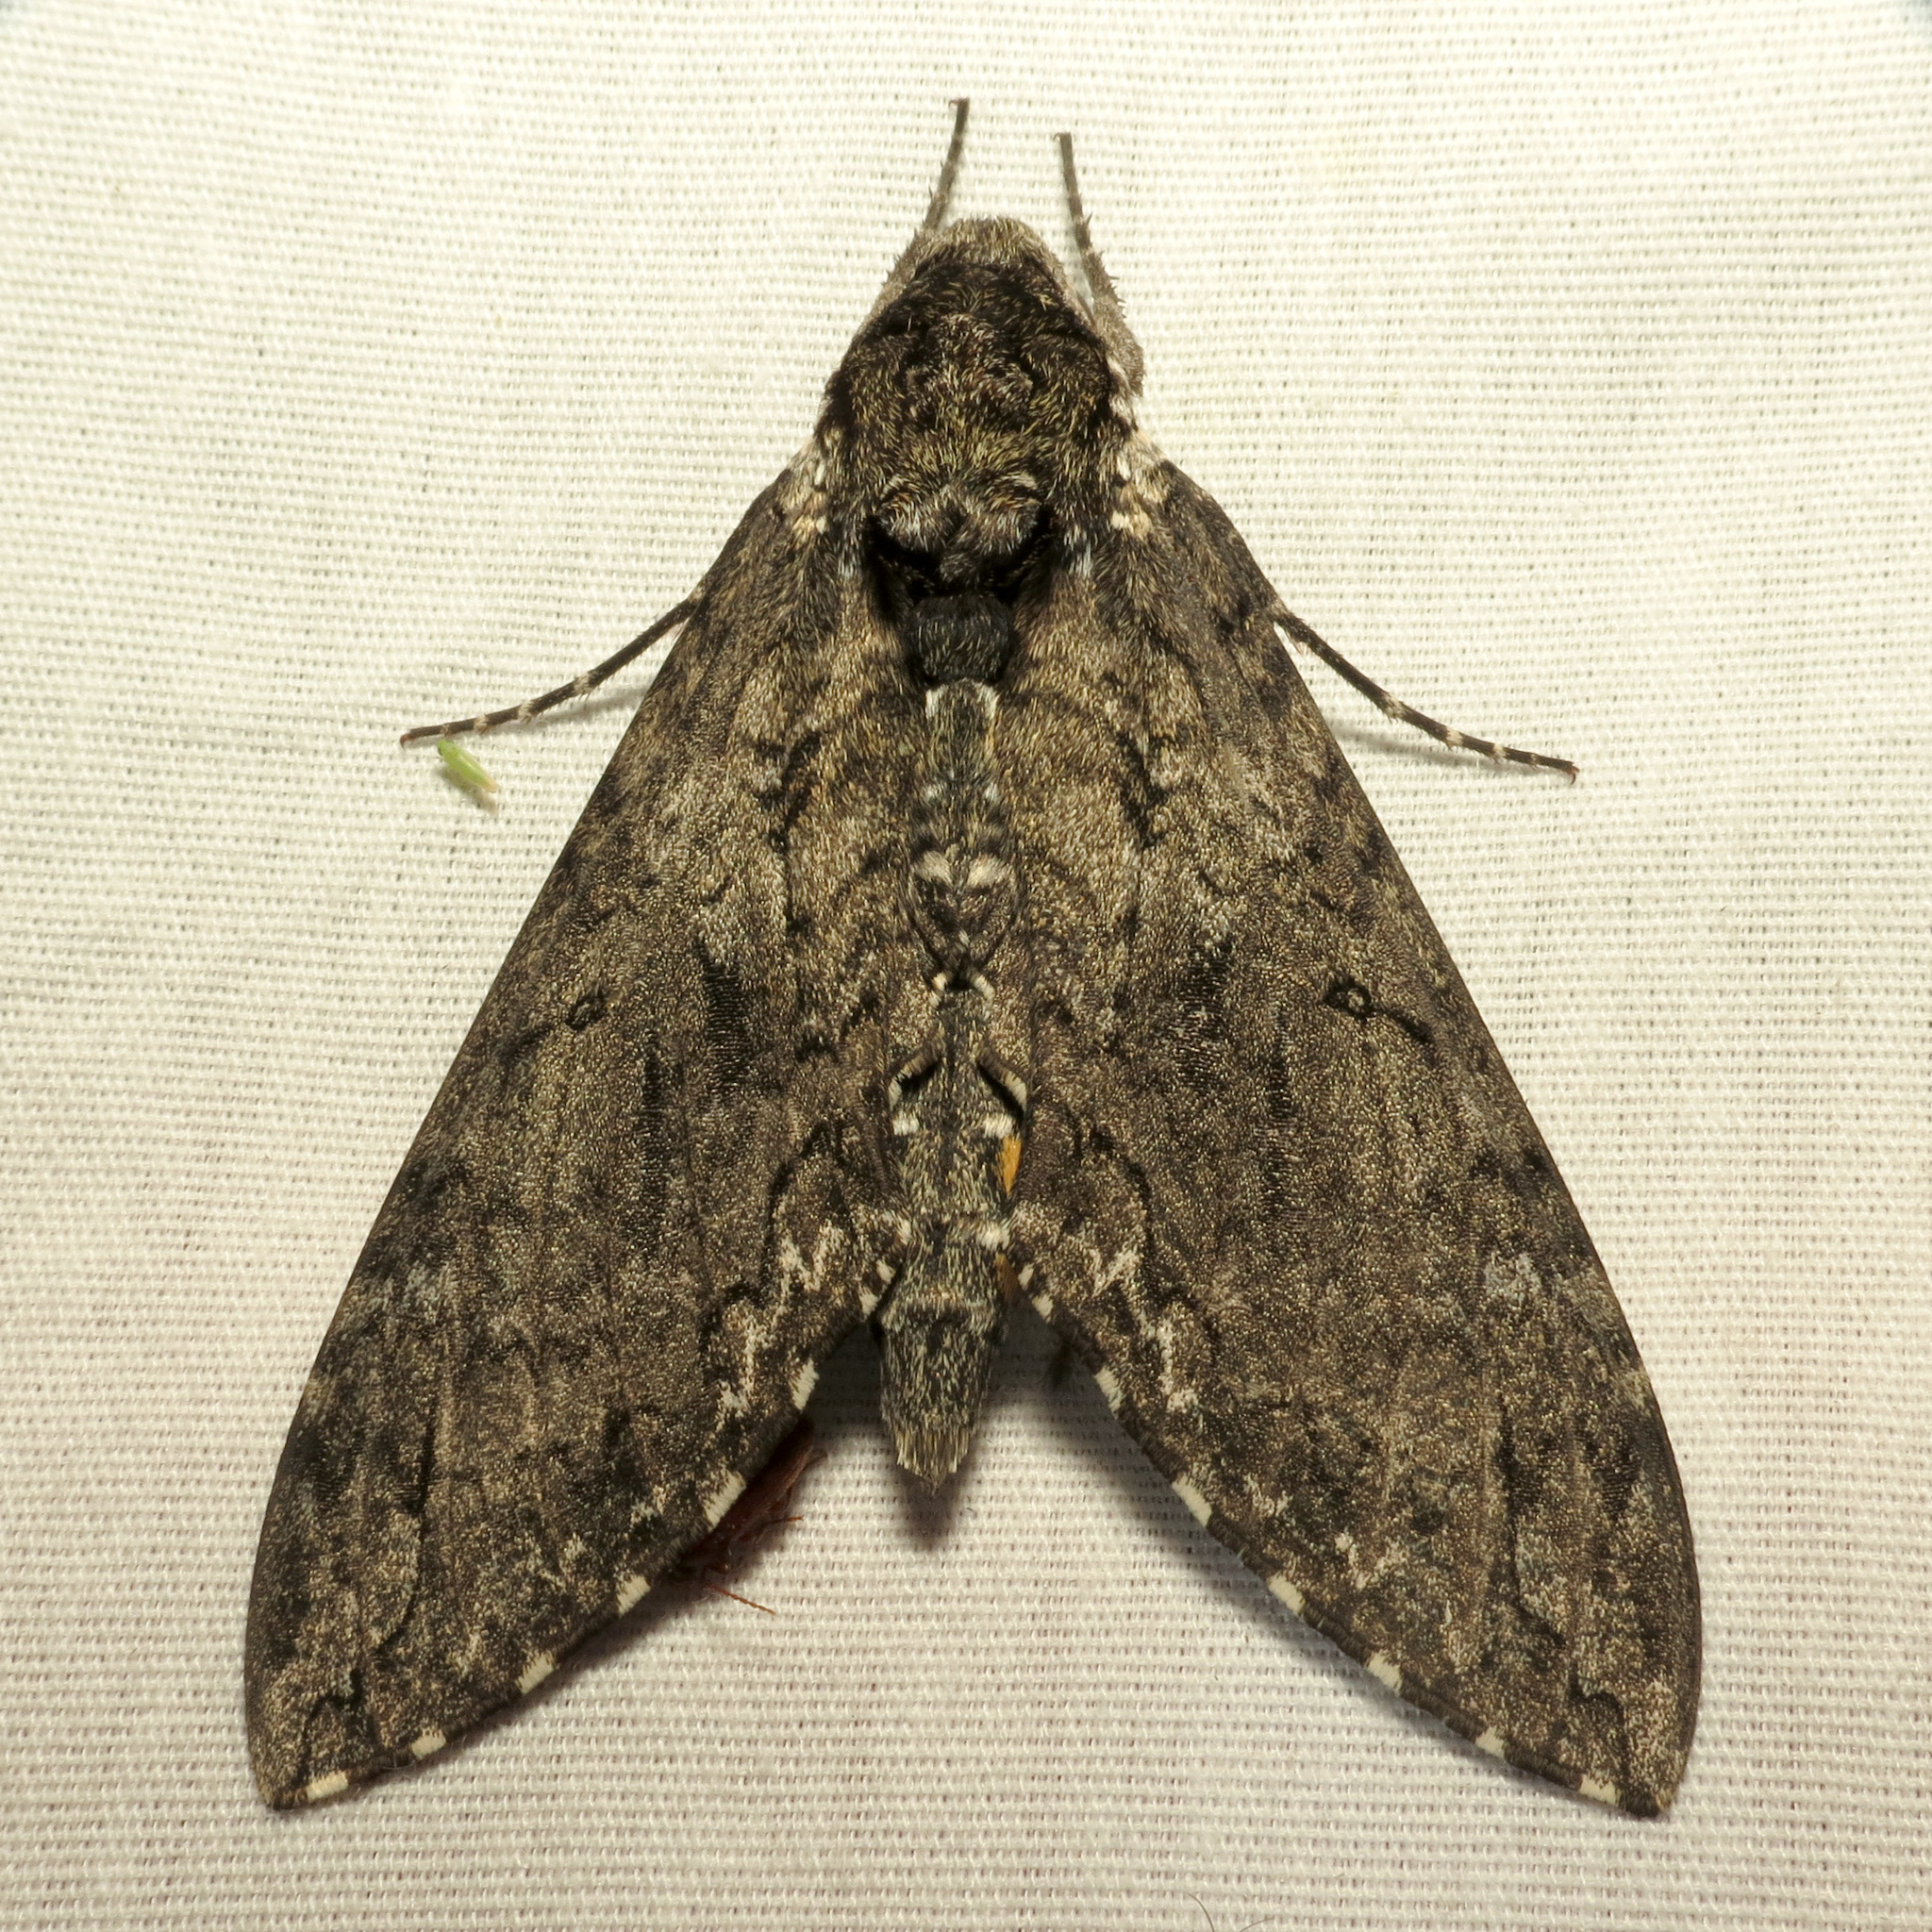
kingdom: Animalia
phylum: Arthropoda
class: Insecta
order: Lepidoptera
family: Sphingidae
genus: Manduca
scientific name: Manduca sexta
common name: Carolina sphinx
